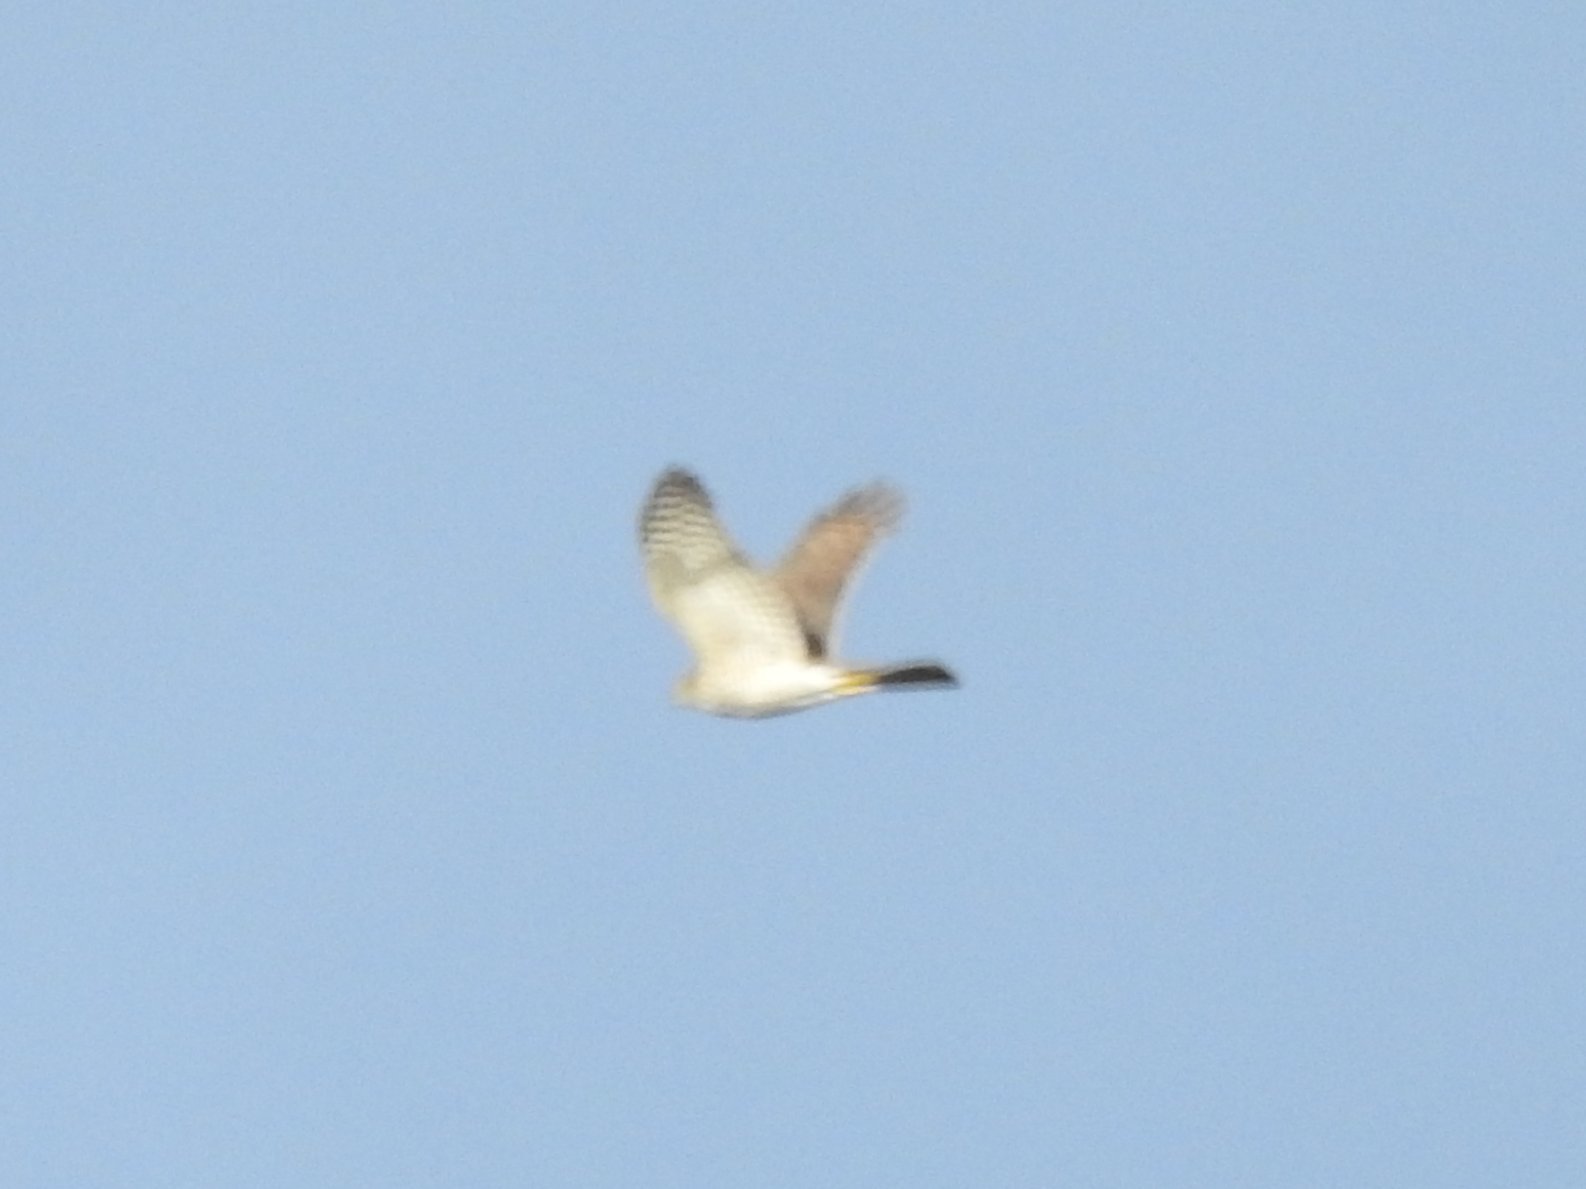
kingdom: Animalia
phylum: Chordata
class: Aves
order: Accipitriformes
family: Accipitridae
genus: Accipiter
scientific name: Accipiter nisus
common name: Eurasian sparrowhawk
